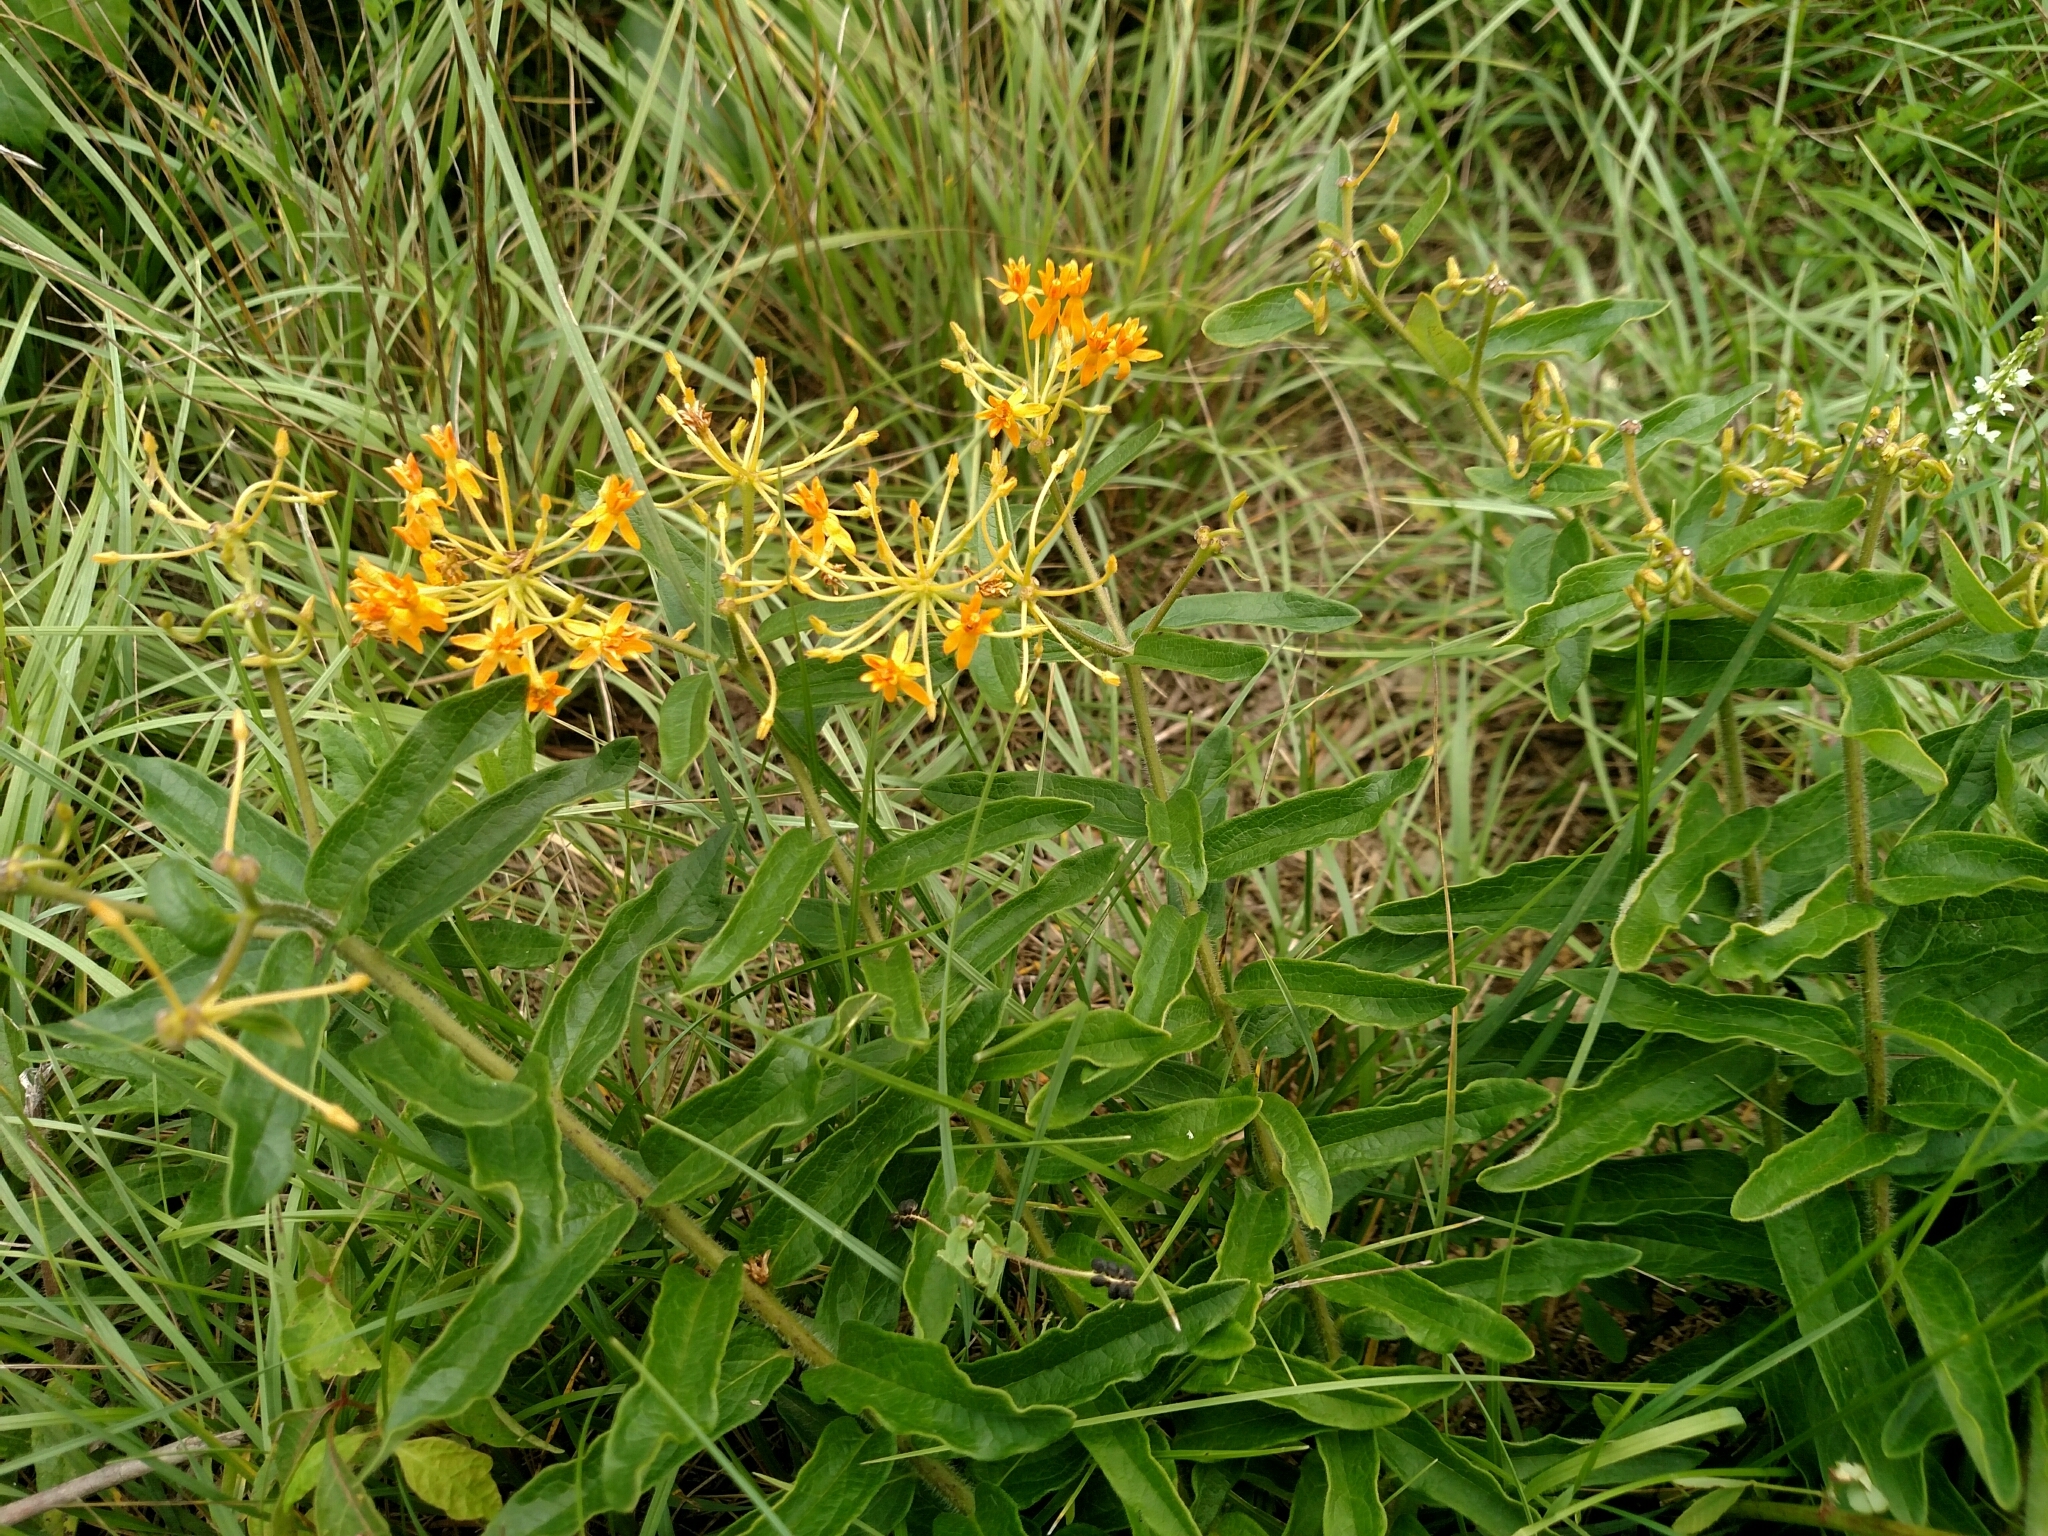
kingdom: Plantae
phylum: Tracheophyta
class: Magnoliopsida
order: Gentianales
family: Apocynaceae
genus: Asclepias
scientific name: Asclepias tuberosa
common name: Butterfly milkweed
